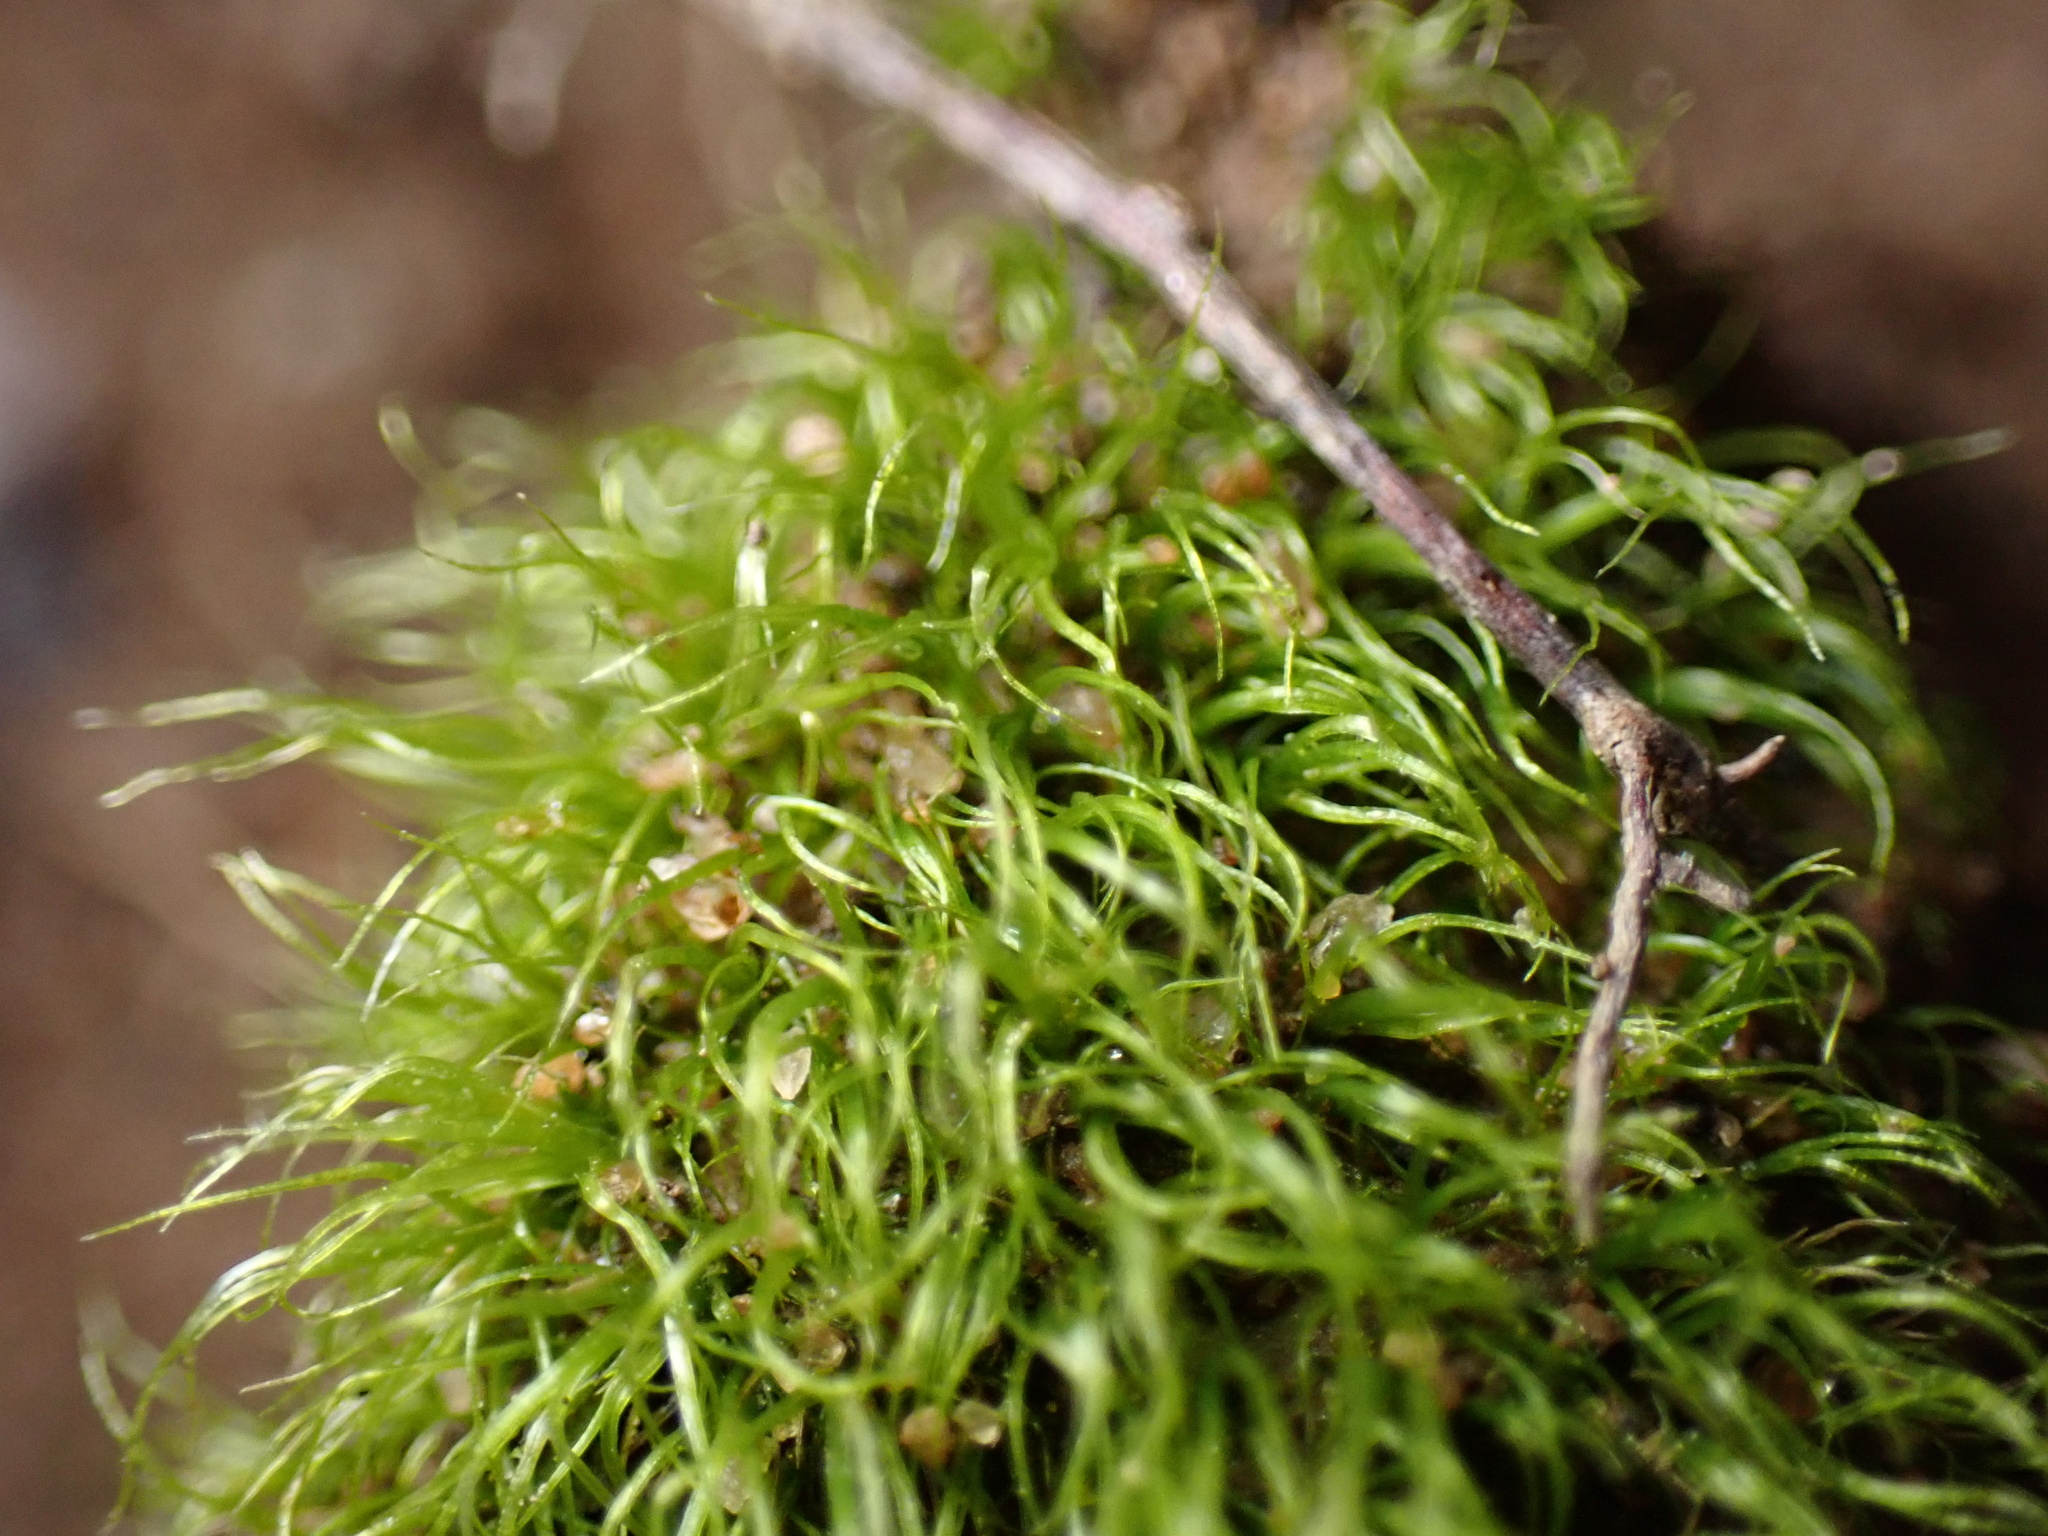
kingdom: Plantae
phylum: Bryophyta
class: Bryopsida
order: Dicranales
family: Dicranellaceae
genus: Dicranella
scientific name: Dicranella heteromalla
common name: Silky forklet moss
